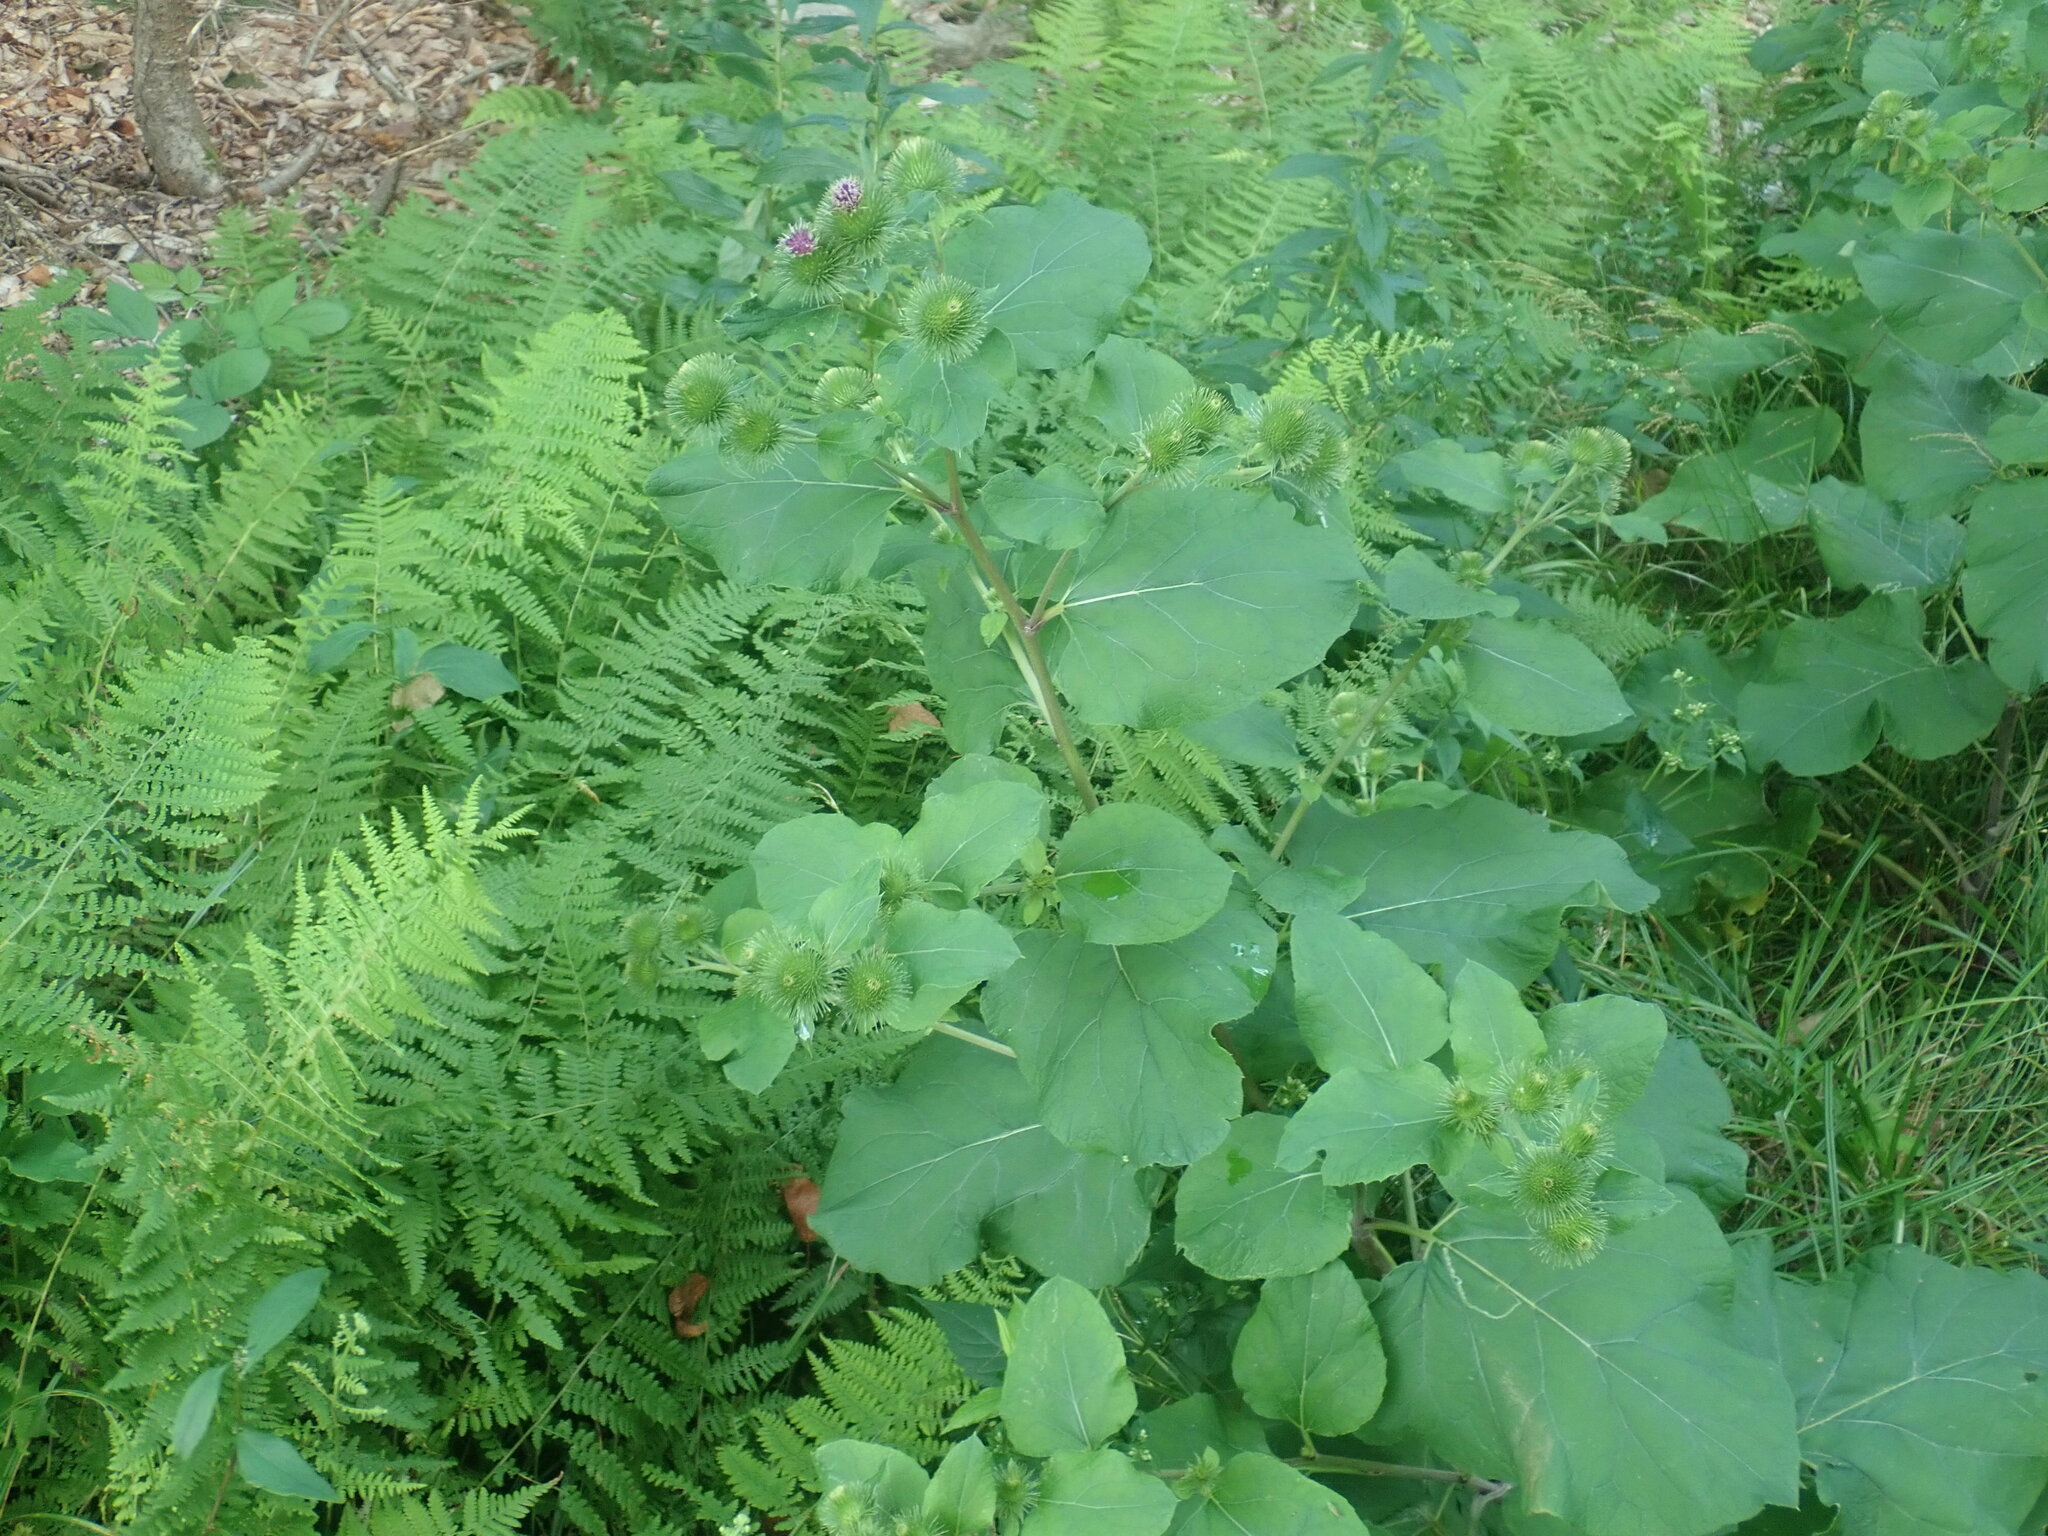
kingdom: Plantae
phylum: Tracheophyta
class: Magnoliopsida
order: Asterales
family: Asteraceae
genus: Arctium
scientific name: Arctium
